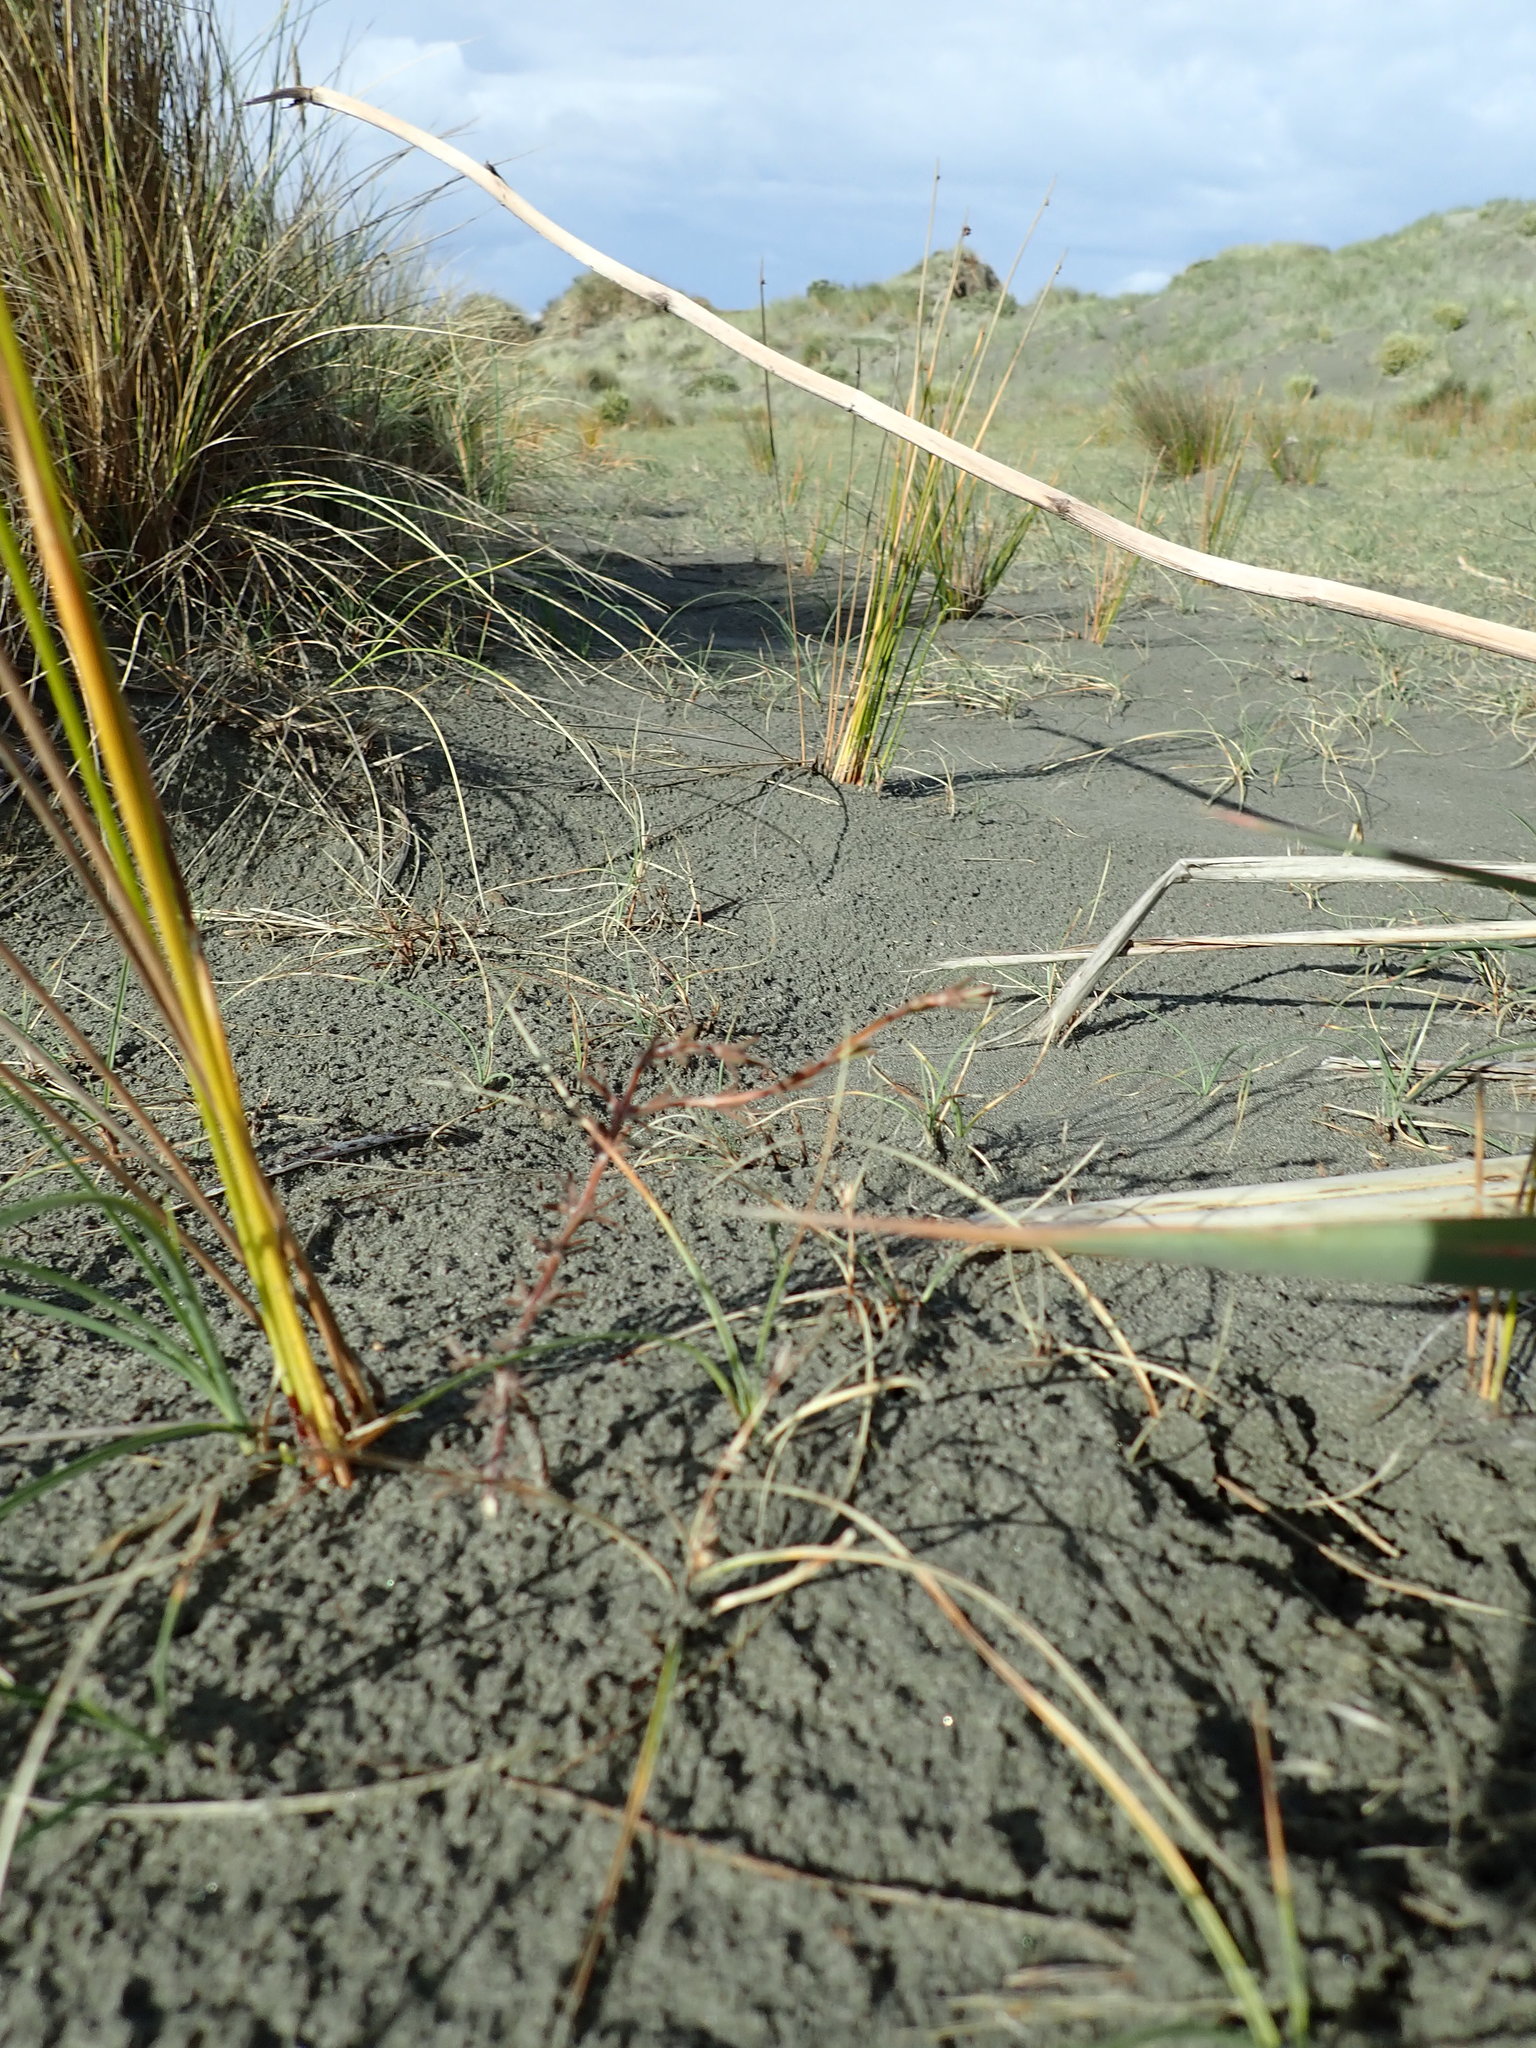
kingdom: Plantae
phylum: Tracheophyta
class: Magnoliopsida
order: Gentianales
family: Rubiaceae
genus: Coprosma
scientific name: Coprosma acerosa
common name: Sand coprosma
